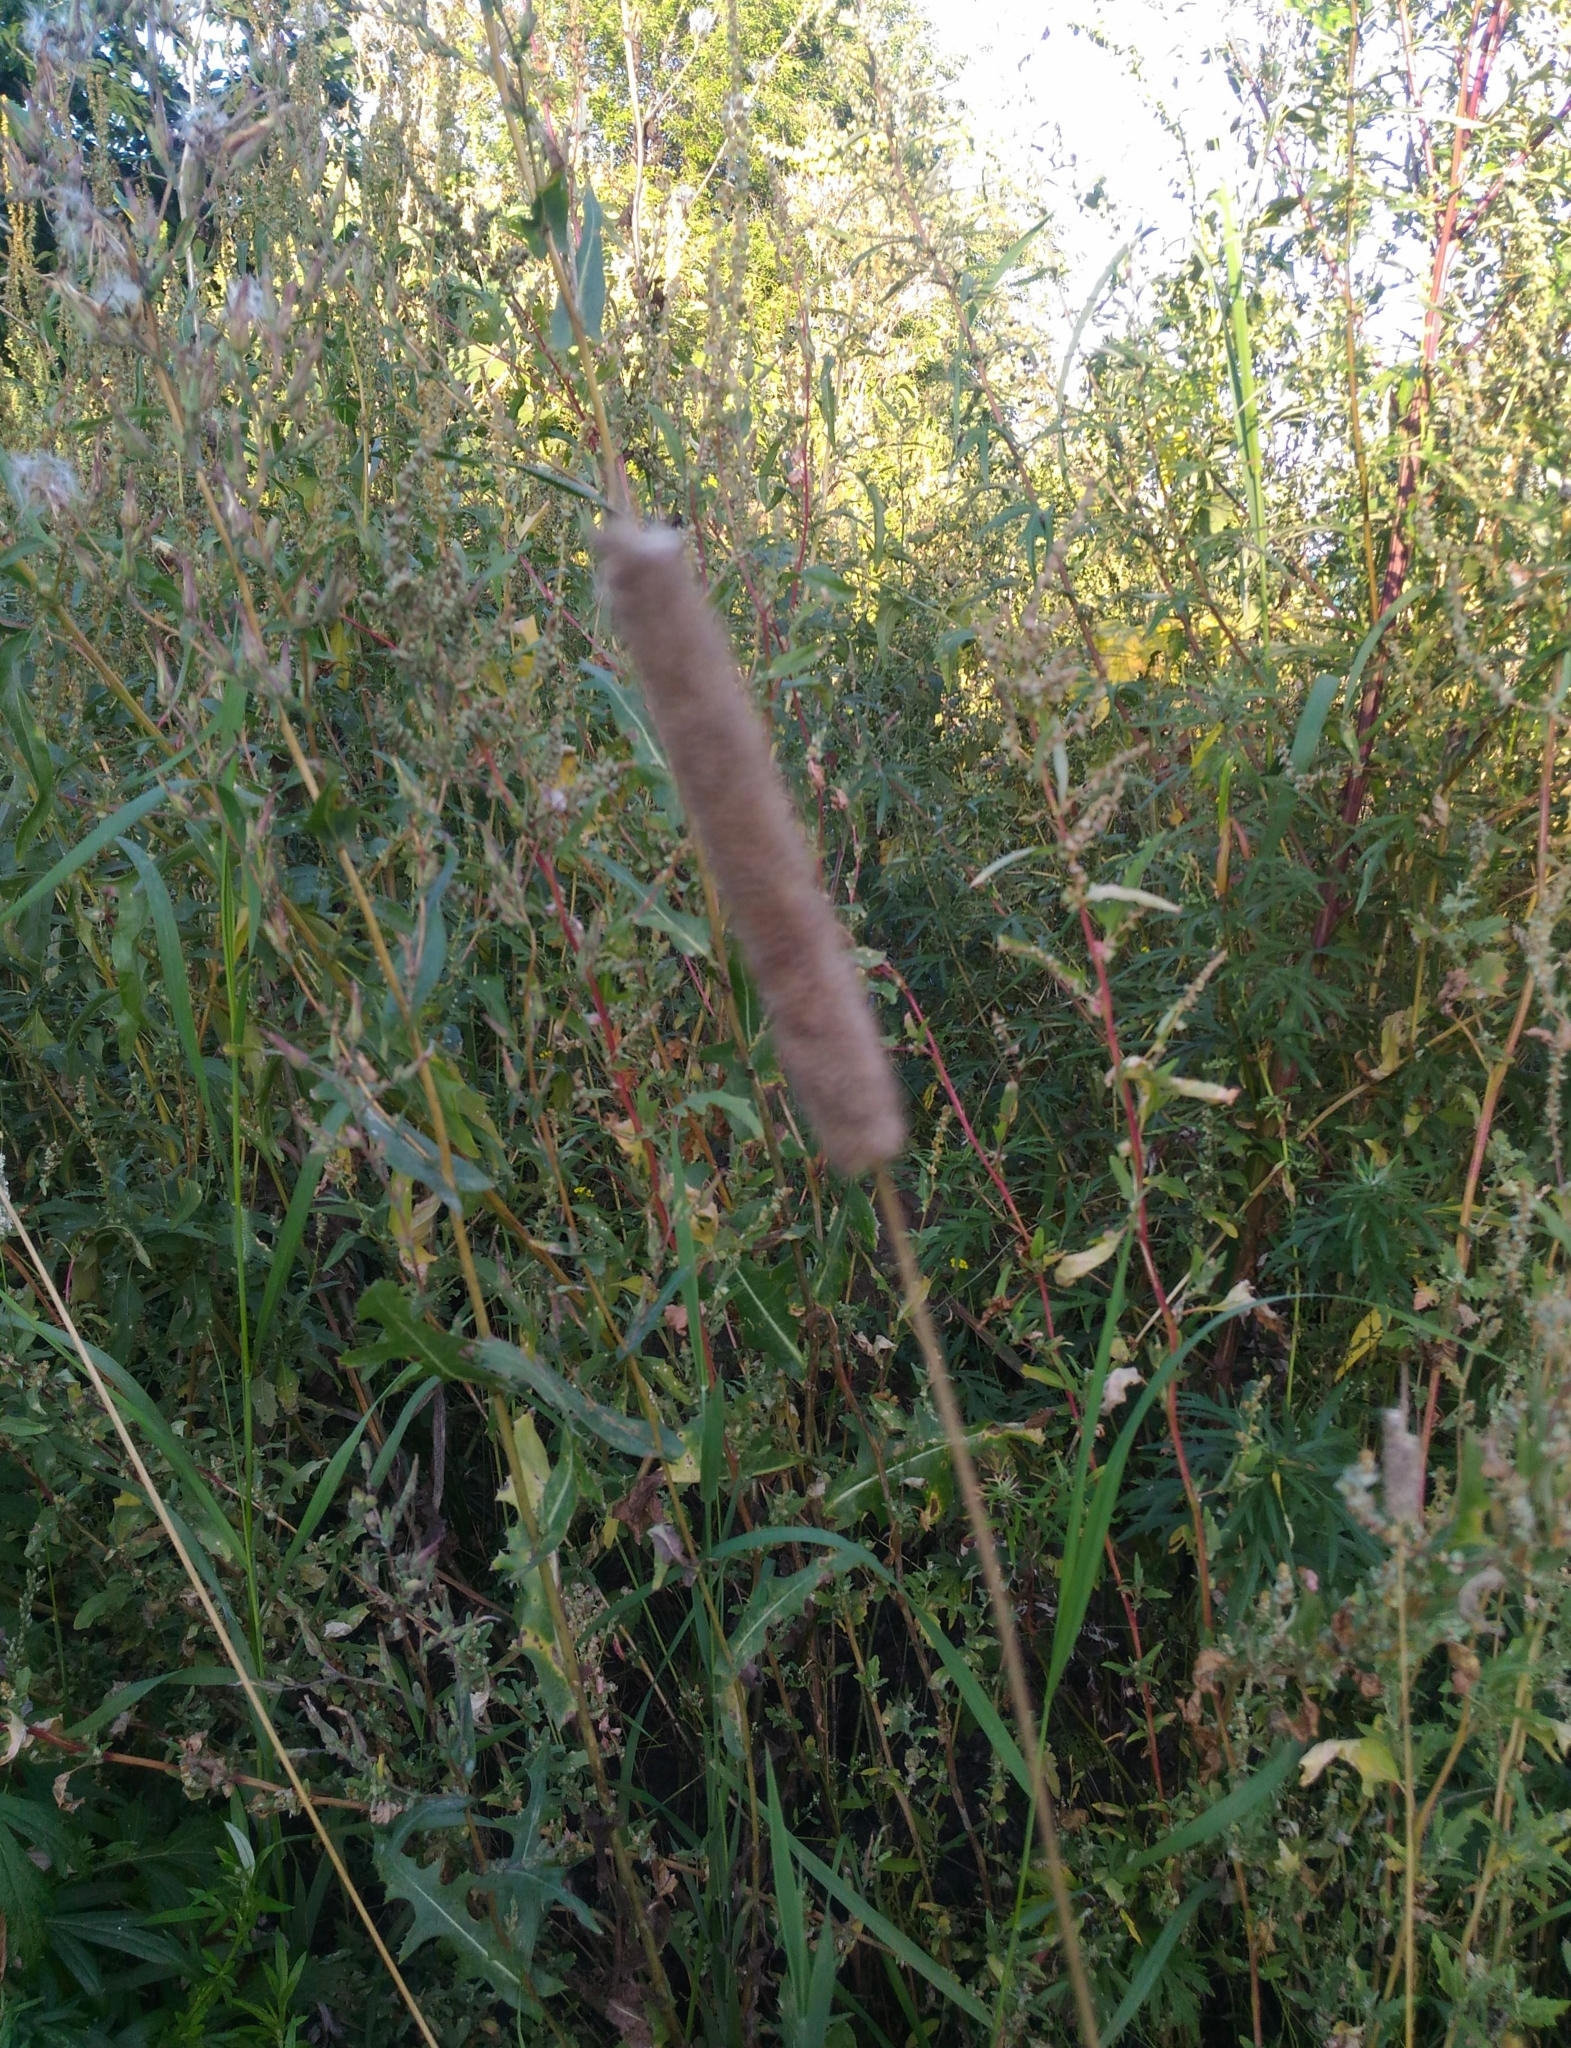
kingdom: Plantae
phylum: Tracheophyta
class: Liliopsida
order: Poales
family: Poaceae
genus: Phleum
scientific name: Phleum pratense
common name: Timothy grass
